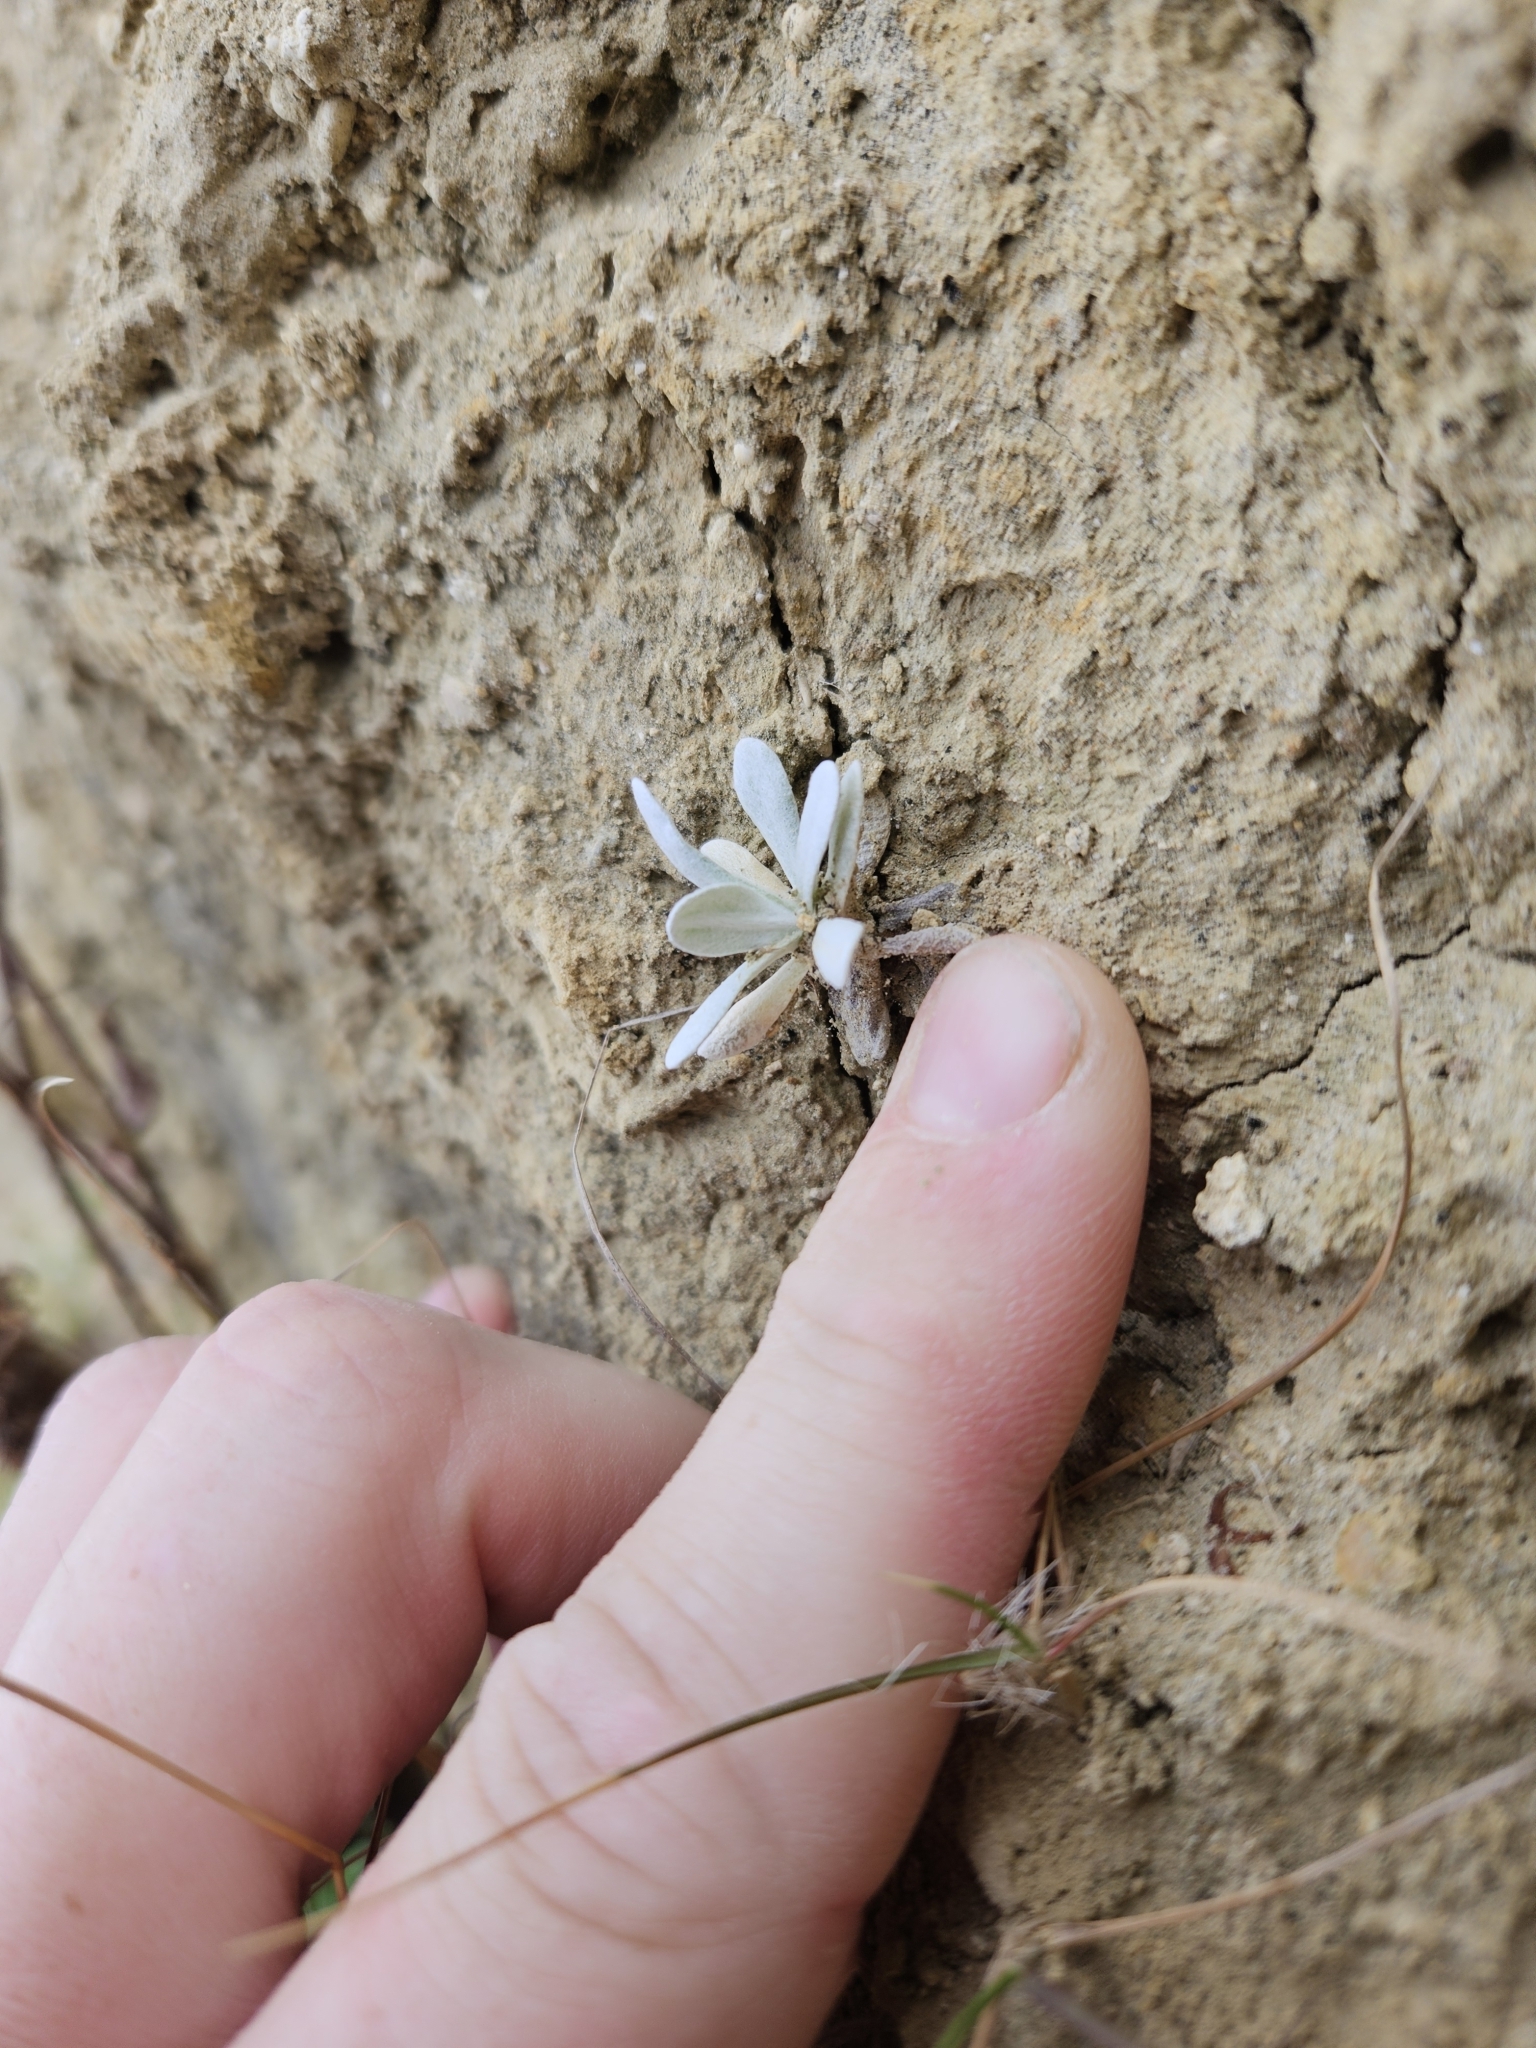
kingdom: Plantae
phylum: Tracheophyta
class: Magnoliopsida
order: Asterales
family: Asteraceae
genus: Helichrysum
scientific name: Helichrysum luteoalbum
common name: Daisy
